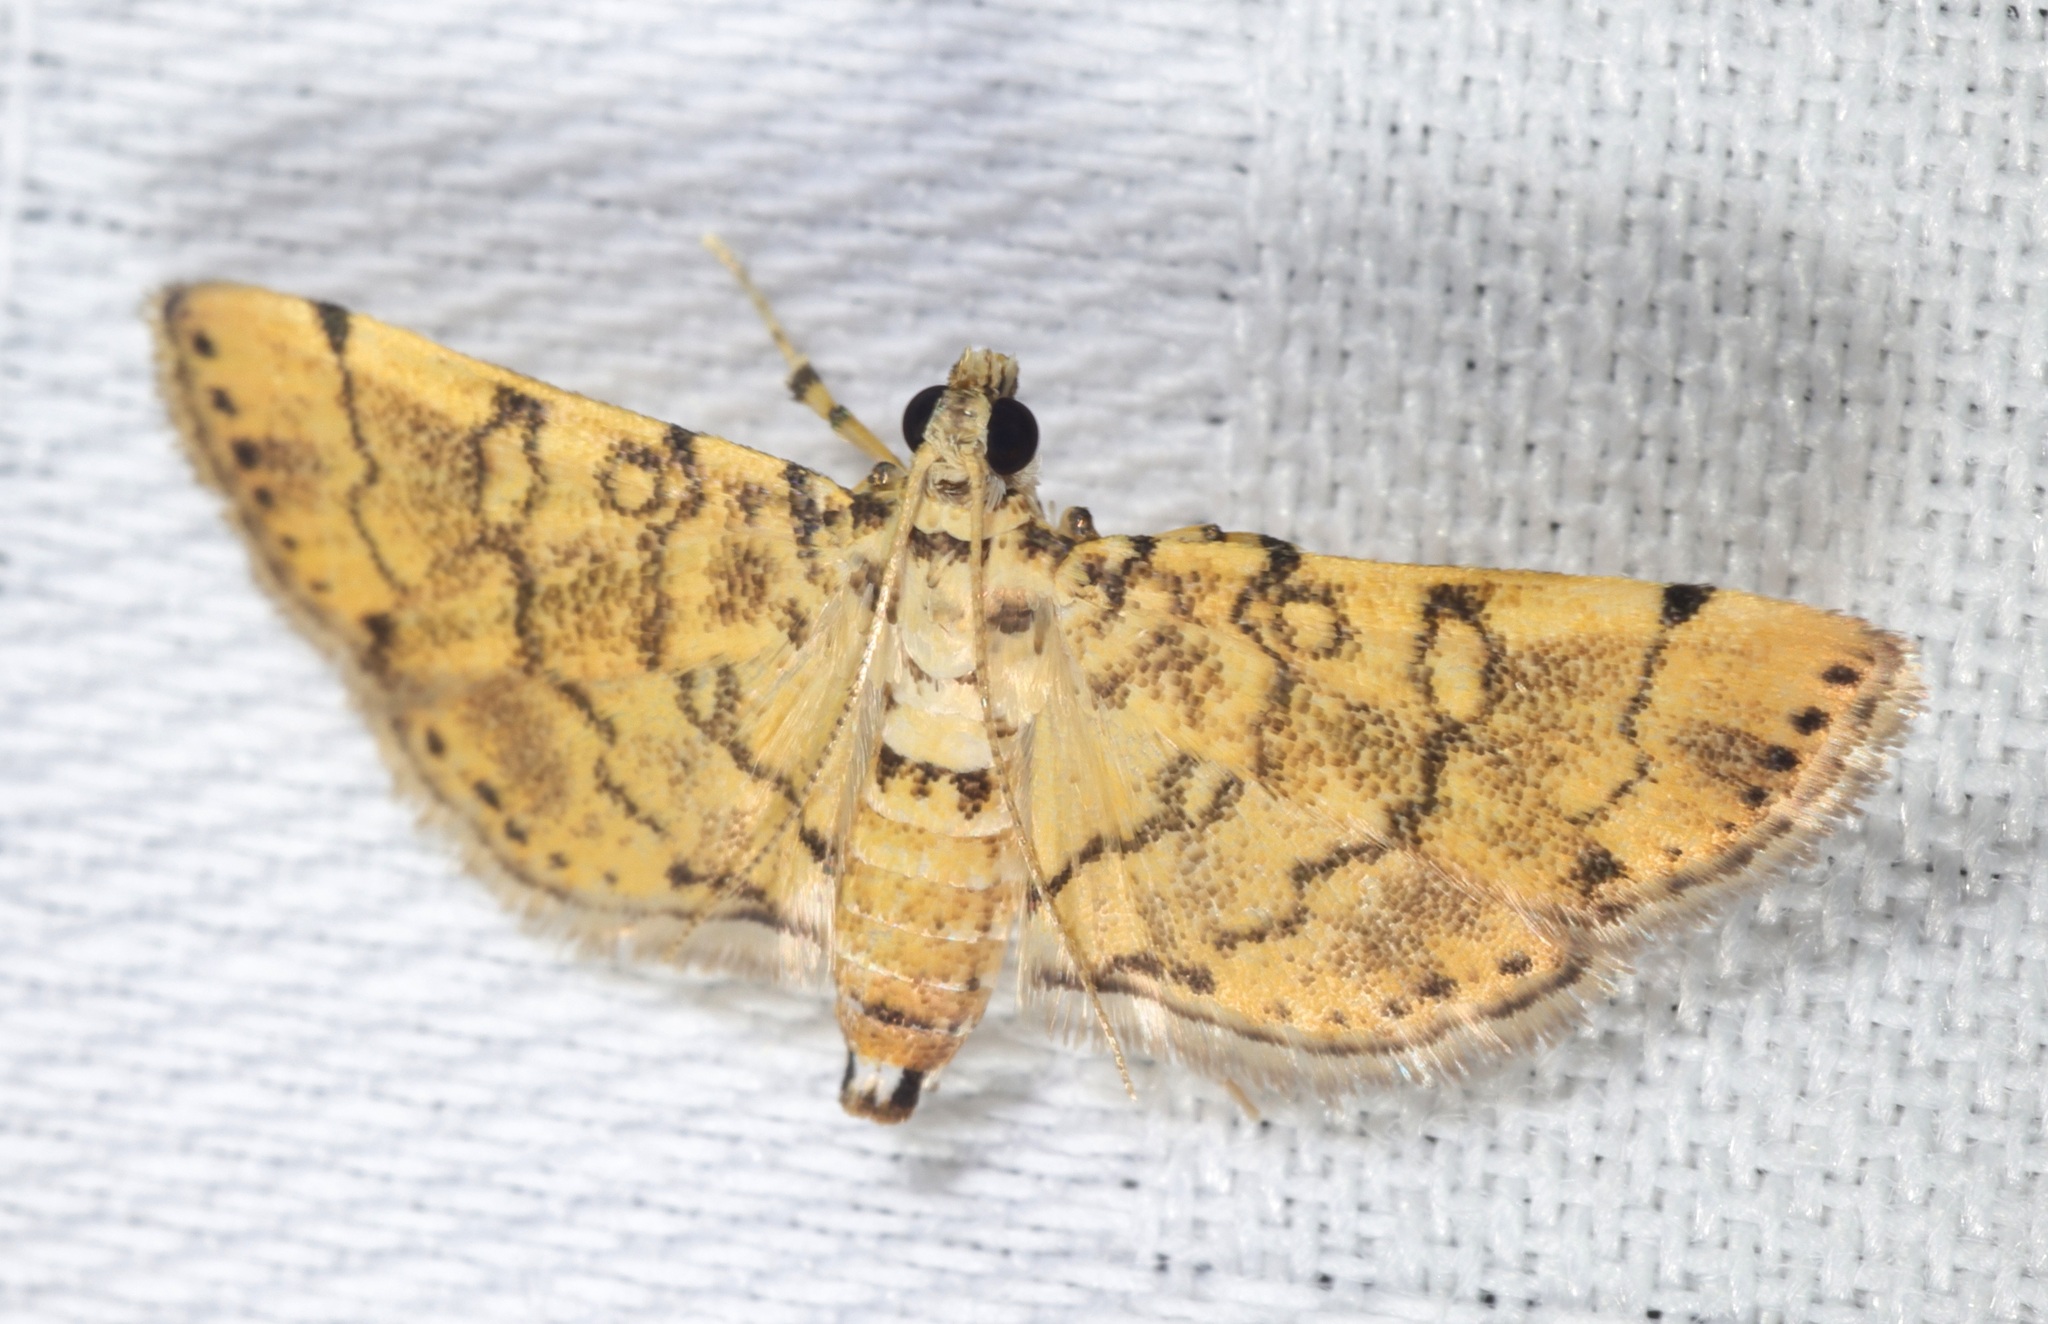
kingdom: Animalia
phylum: Arthropoda
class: Insecta
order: Lepidoptera
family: Crambidae
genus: Lamprosema
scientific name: Lamprosema tampiusalis
